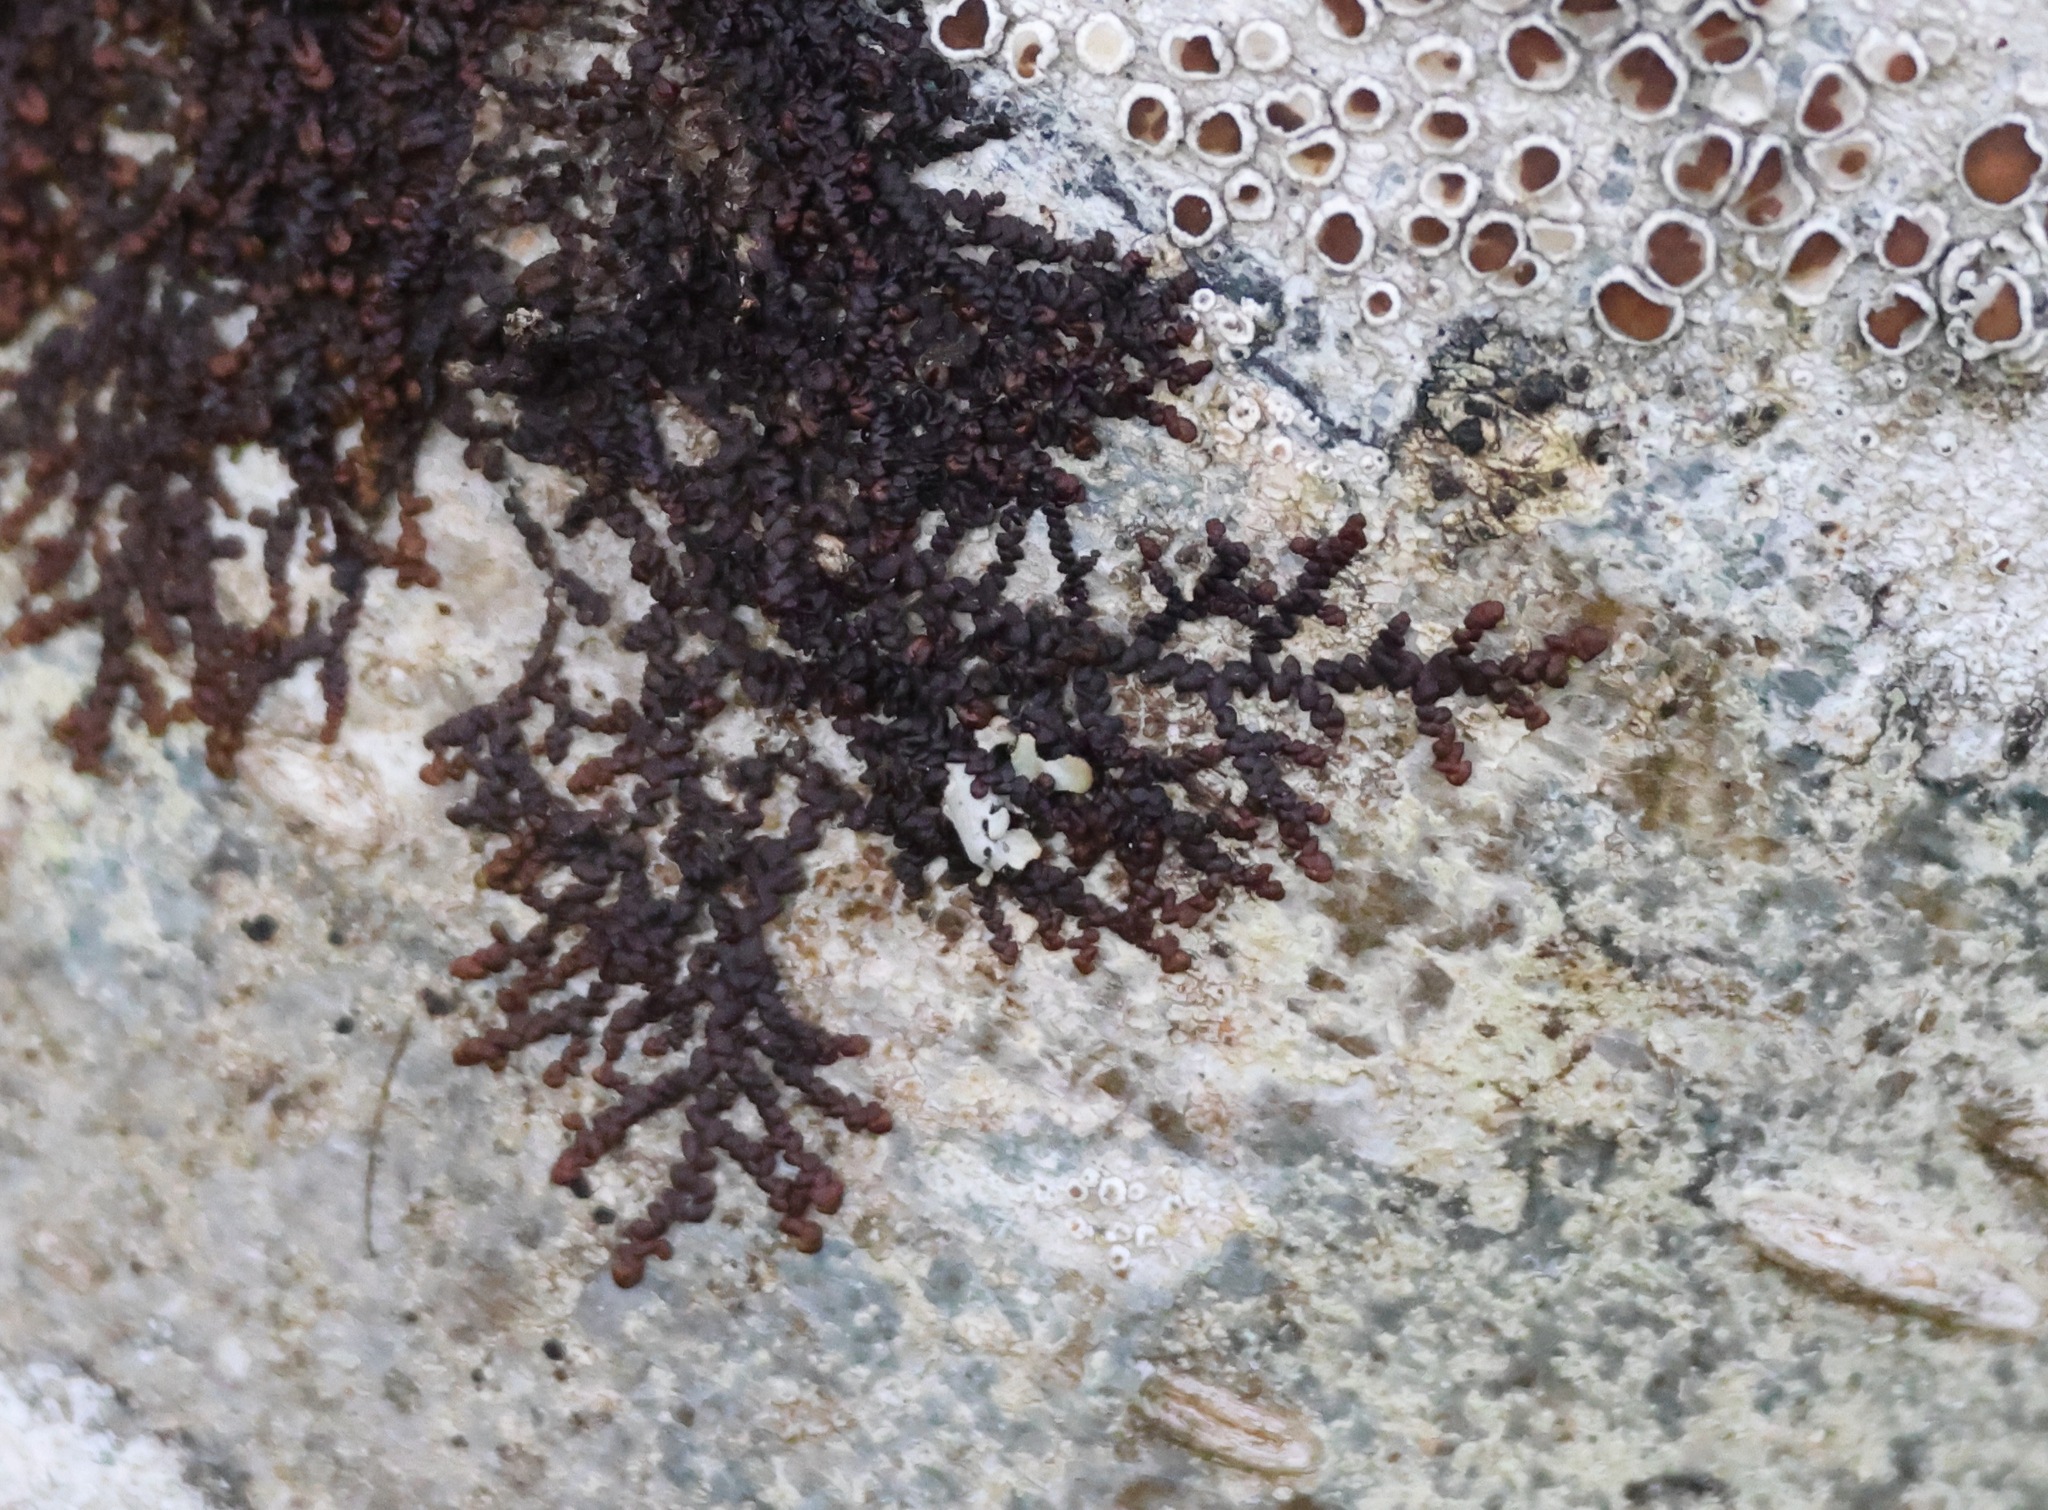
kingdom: Plantae
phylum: Marchantiophyta
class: Jungermanniopsida
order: Porellales
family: Frullaniaceae
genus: Frullania
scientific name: Frullania dilatata
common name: Dilated scalewort
